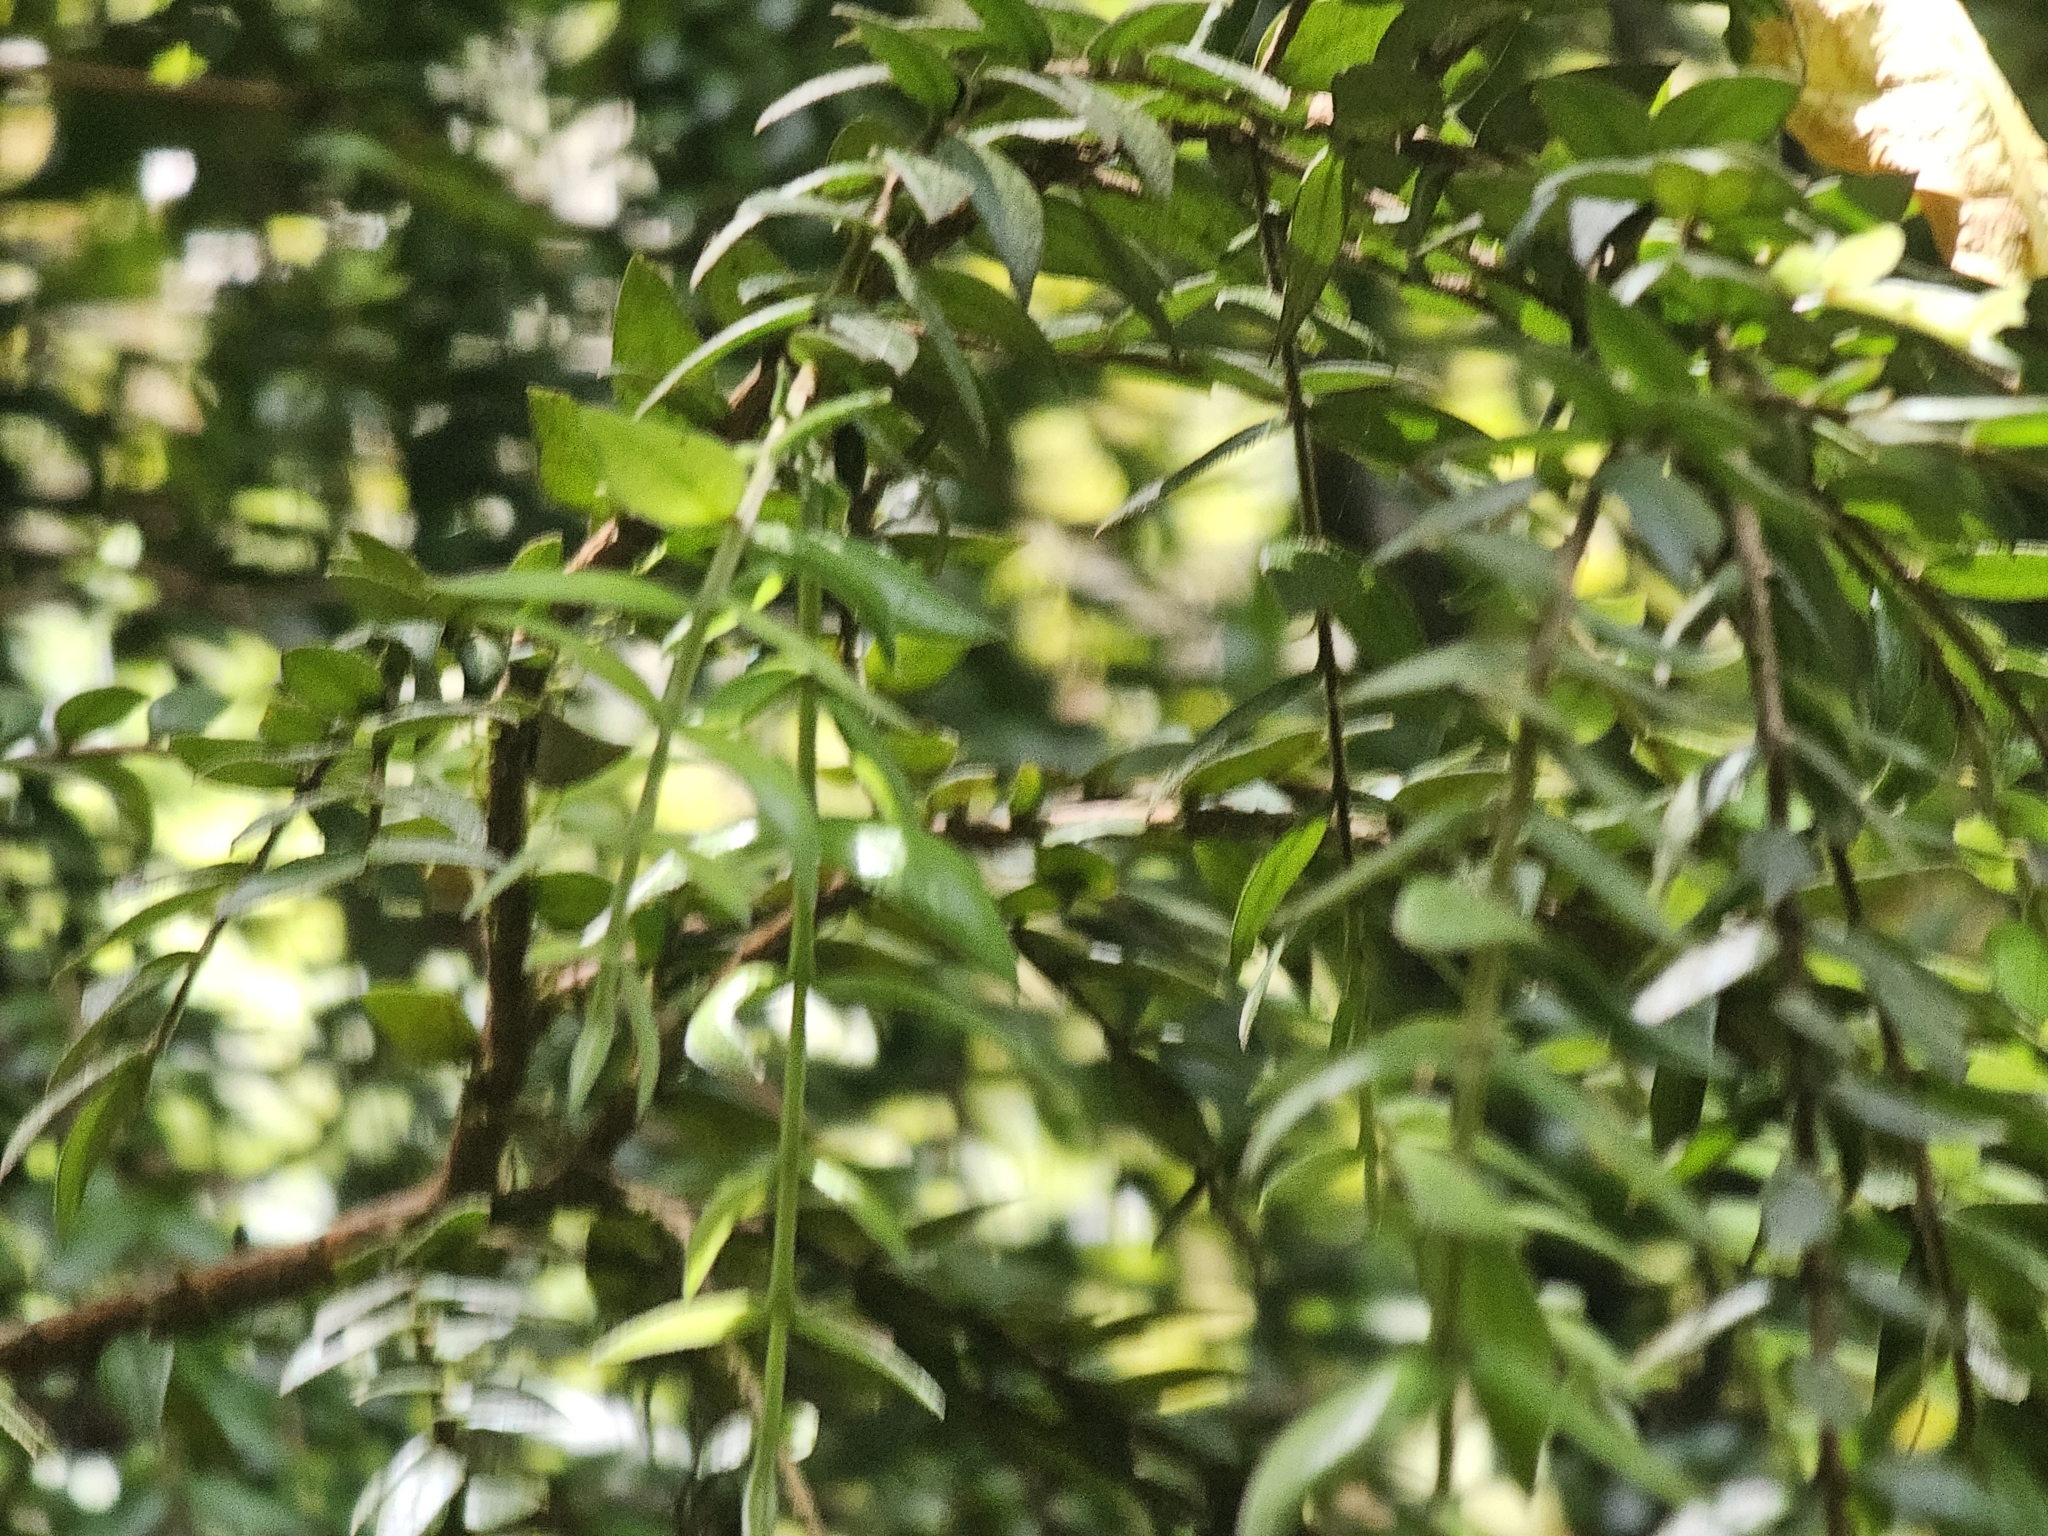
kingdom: Plantae
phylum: Tracheophyta
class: Magnoliopsida
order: Myrtales
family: Myrtaceae
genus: Metrosideros
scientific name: Metrosideros colensoi
